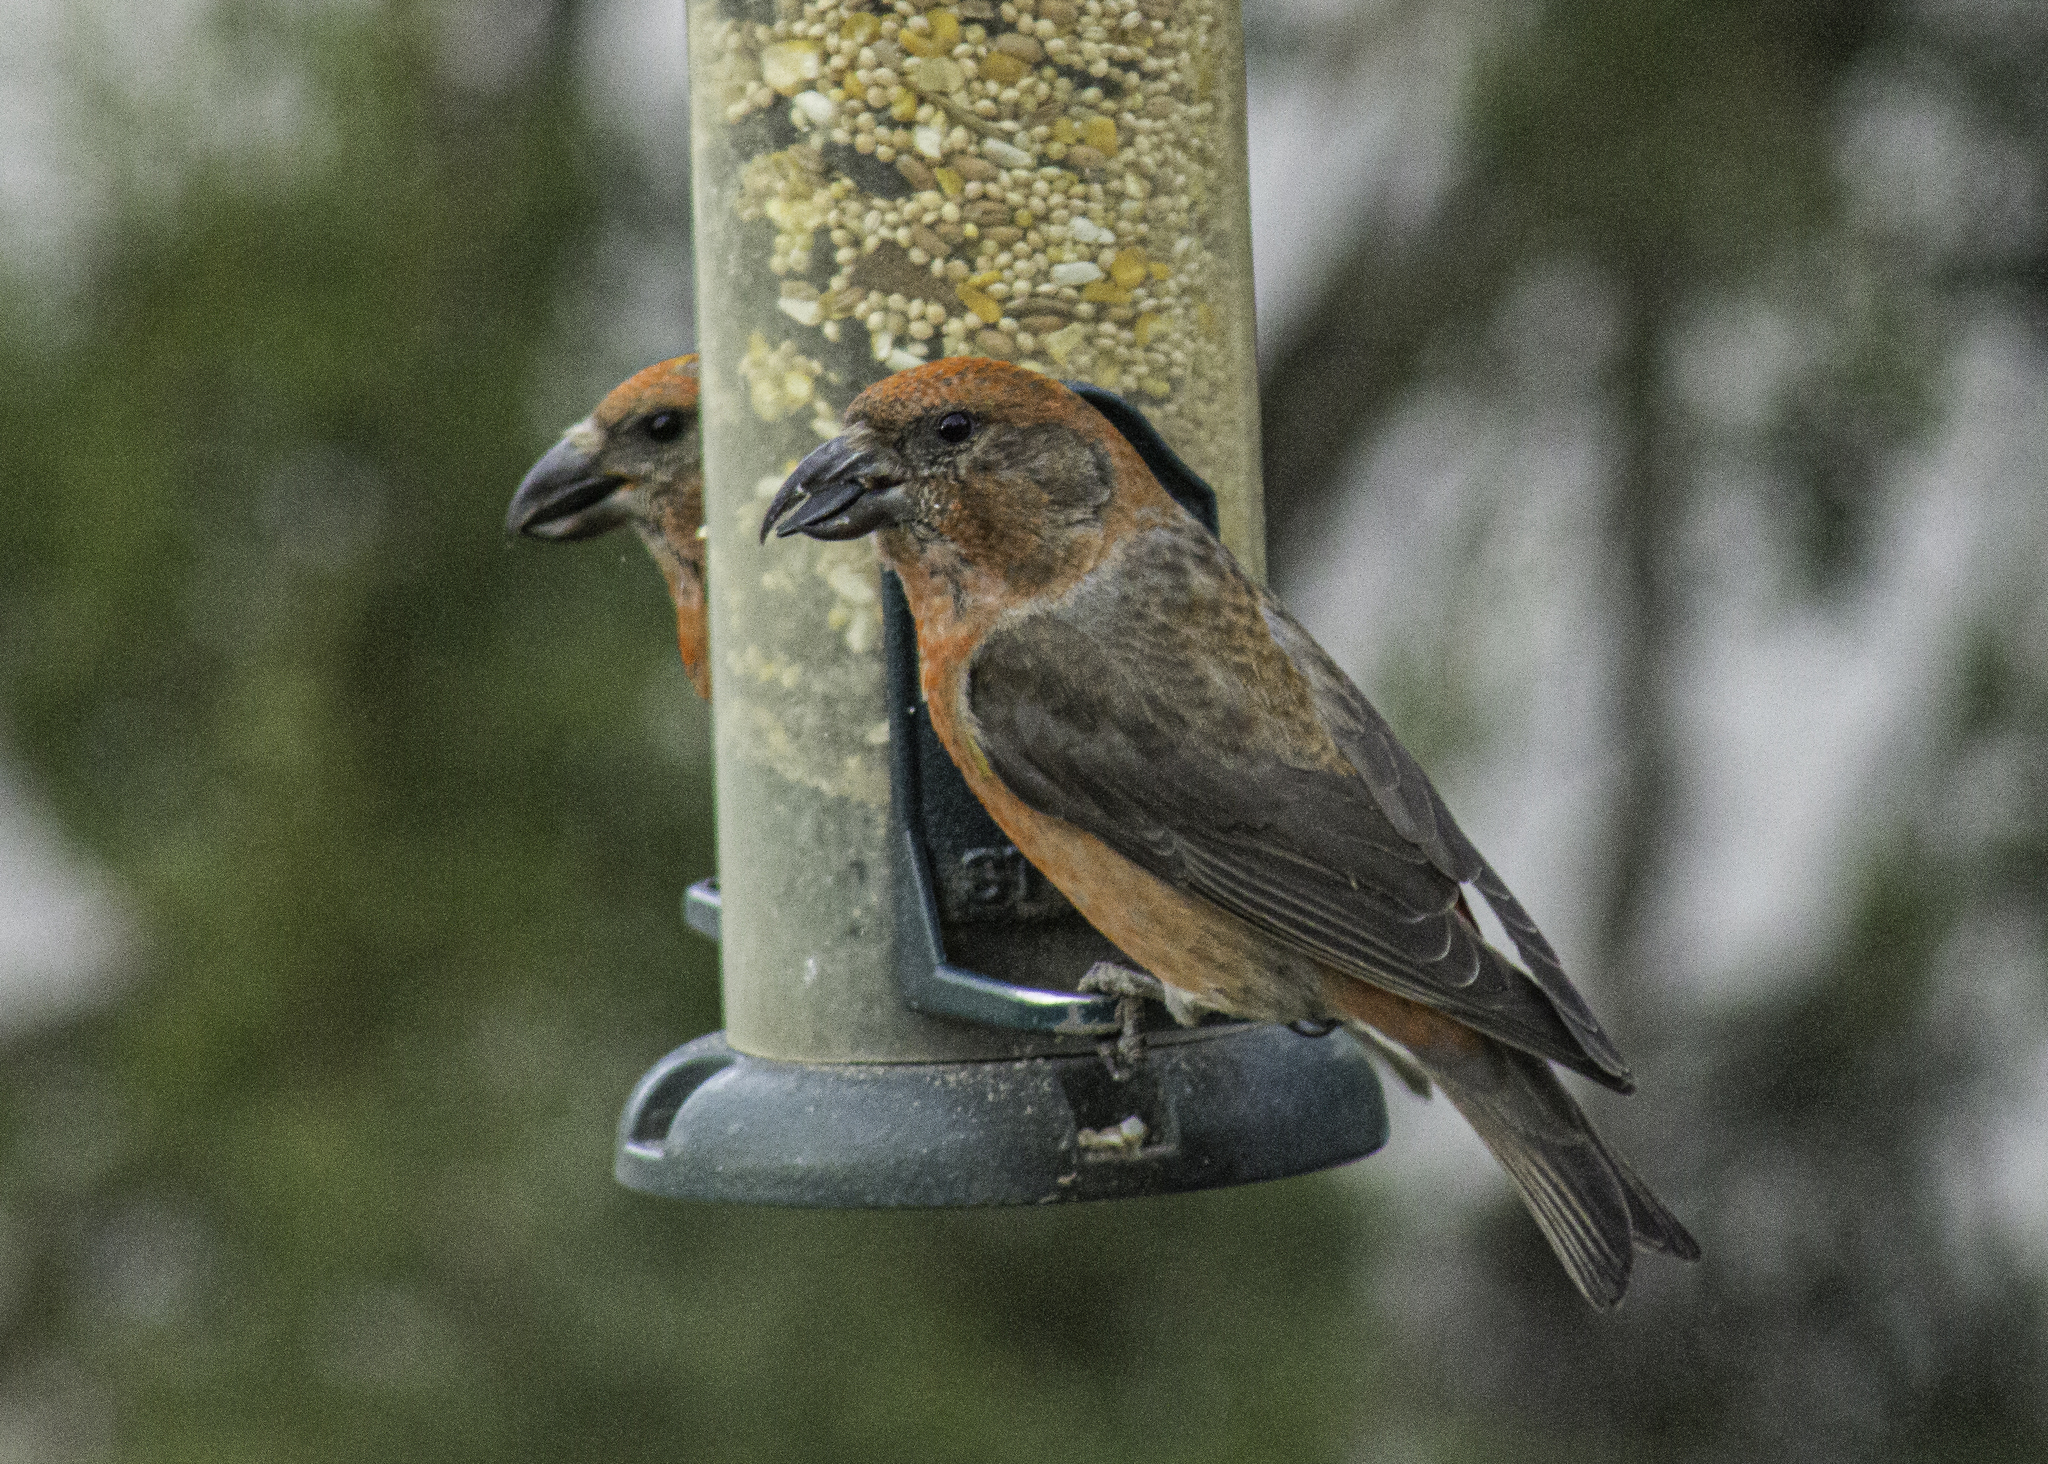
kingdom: Animalia
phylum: Chordata
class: Aves
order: Passeriformes
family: Fringillidae
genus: Loxia
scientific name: Loxia curvirostra
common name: Red crossbill
